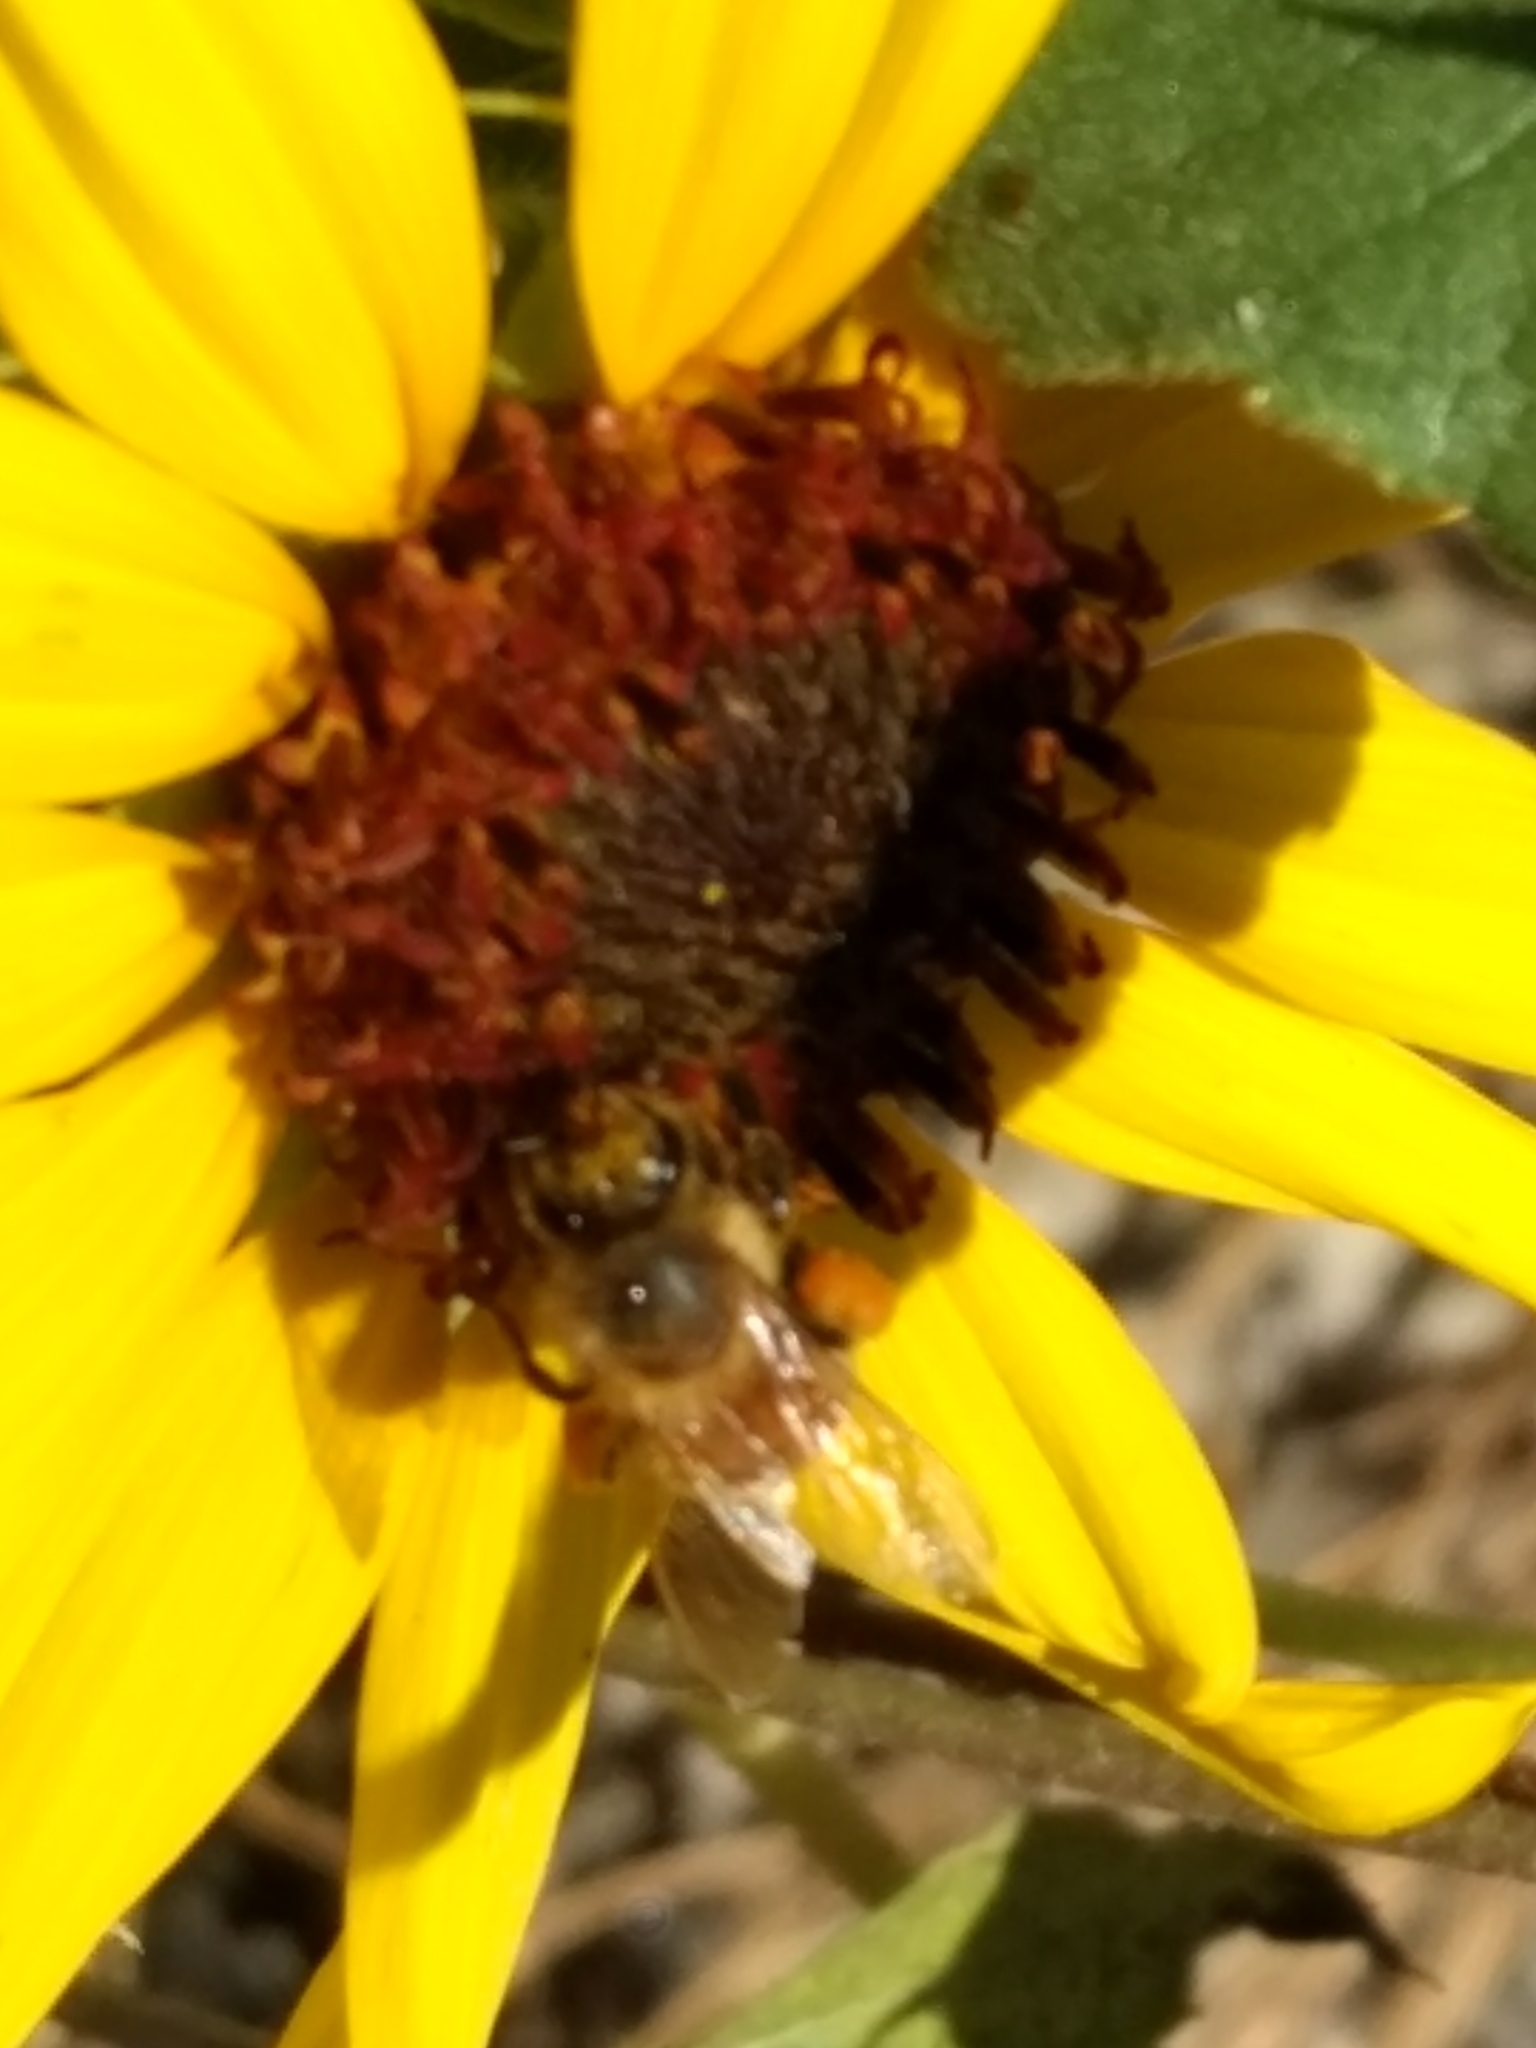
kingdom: Animalia
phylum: Arthropoda
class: Insecta
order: Hymenoptera
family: Apidae
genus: Apis
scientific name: Apis mellifera
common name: Honey bee
